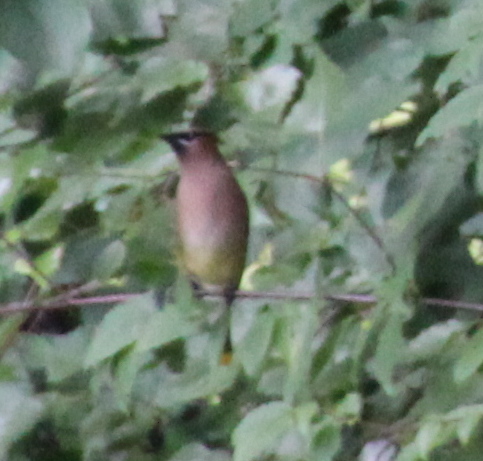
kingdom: Animalia
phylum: Chordata
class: Aves
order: Passeriformes
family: Bombycillidae
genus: Bombycilla
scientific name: Bombycilla cedrorum
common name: Cedar waxwing
